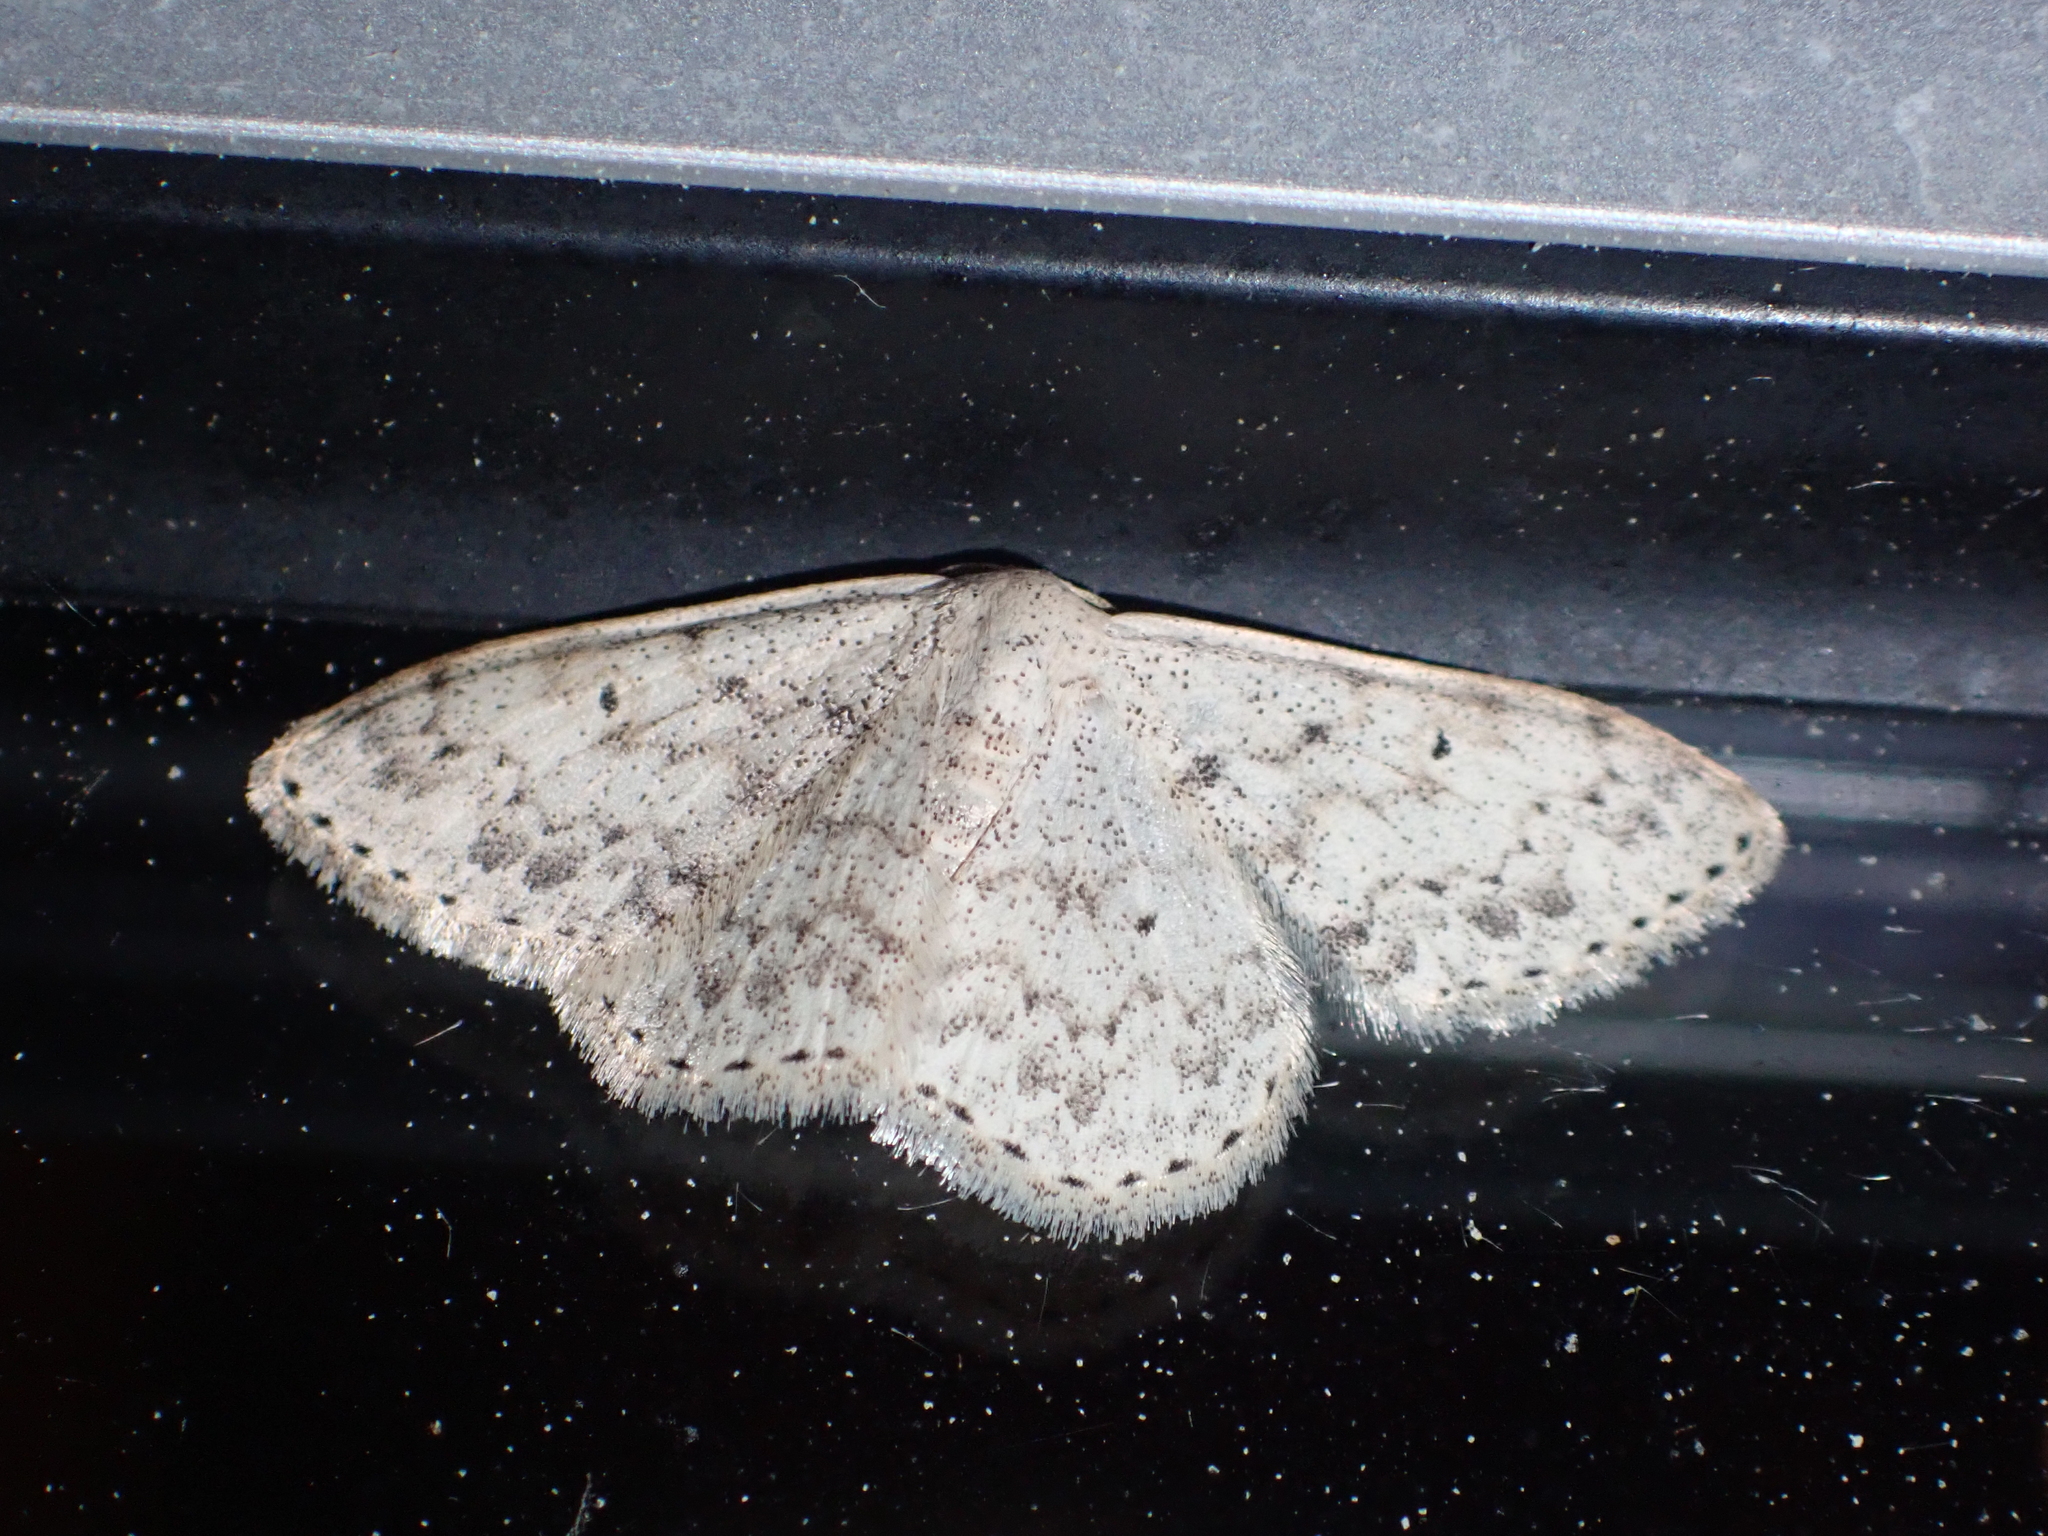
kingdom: Animalia
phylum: Arthropoda
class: Insecta
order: Lepidoptera
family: Geometridae
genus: Scopula
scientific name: Scopula marginepunctata
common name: Mullein wave
